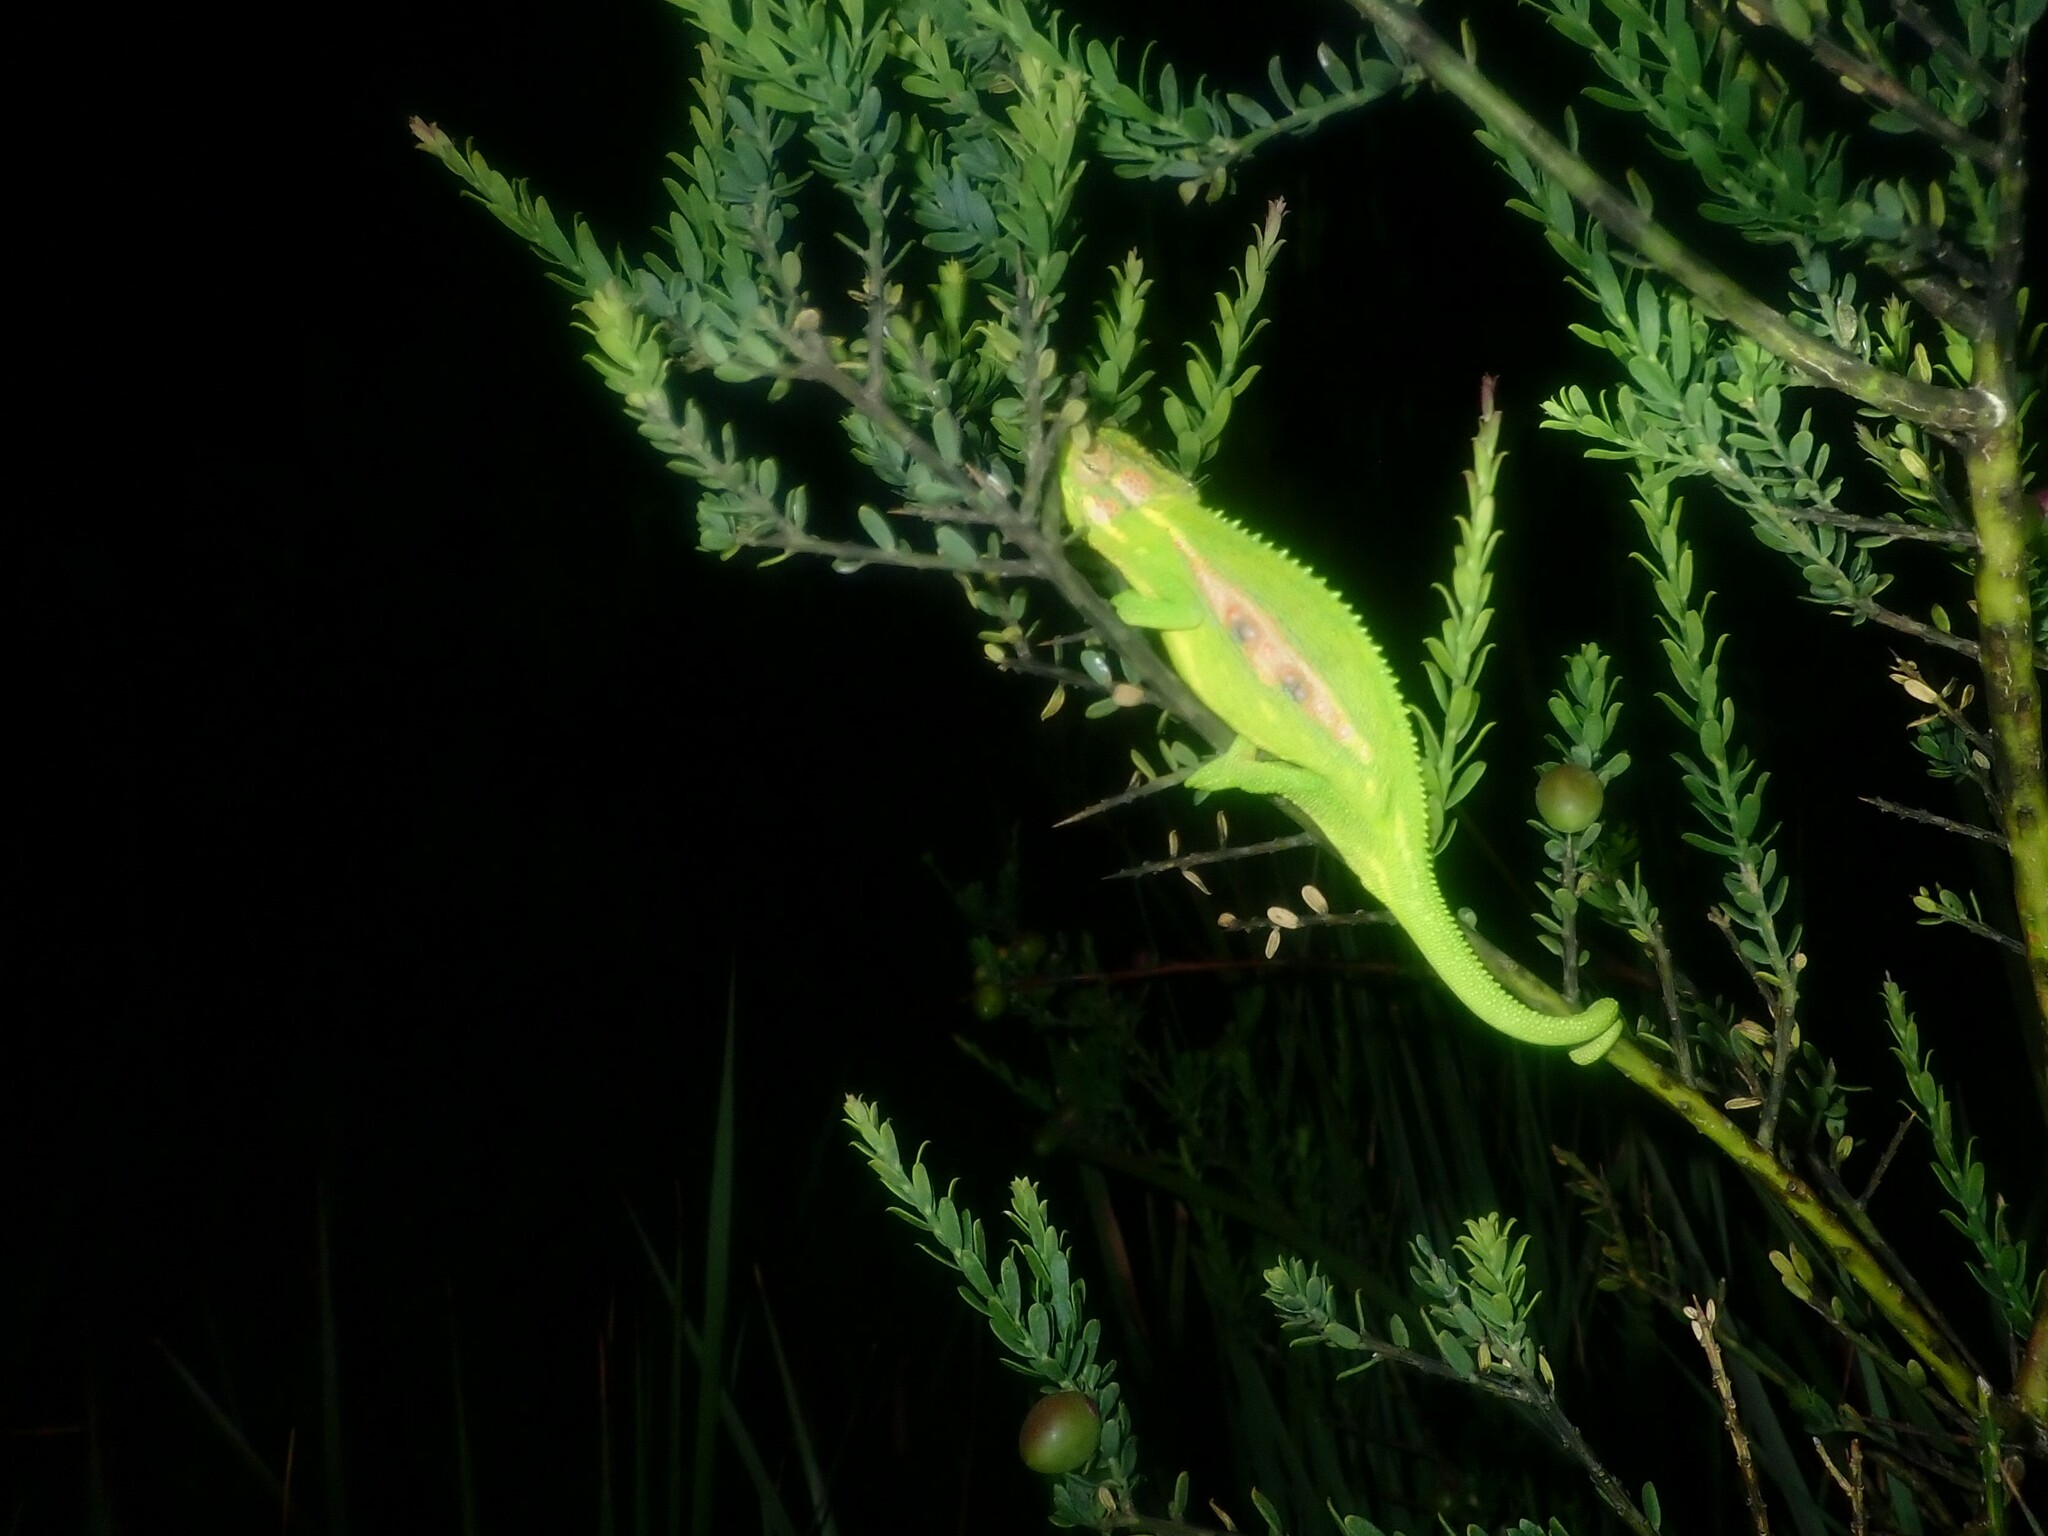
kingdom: Animalia
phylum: Chordata
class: Squamata
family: Chamaeleonidae
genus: Bradypodion
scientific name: Bradypodion pumilum
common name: Cape dwarf chameleon
